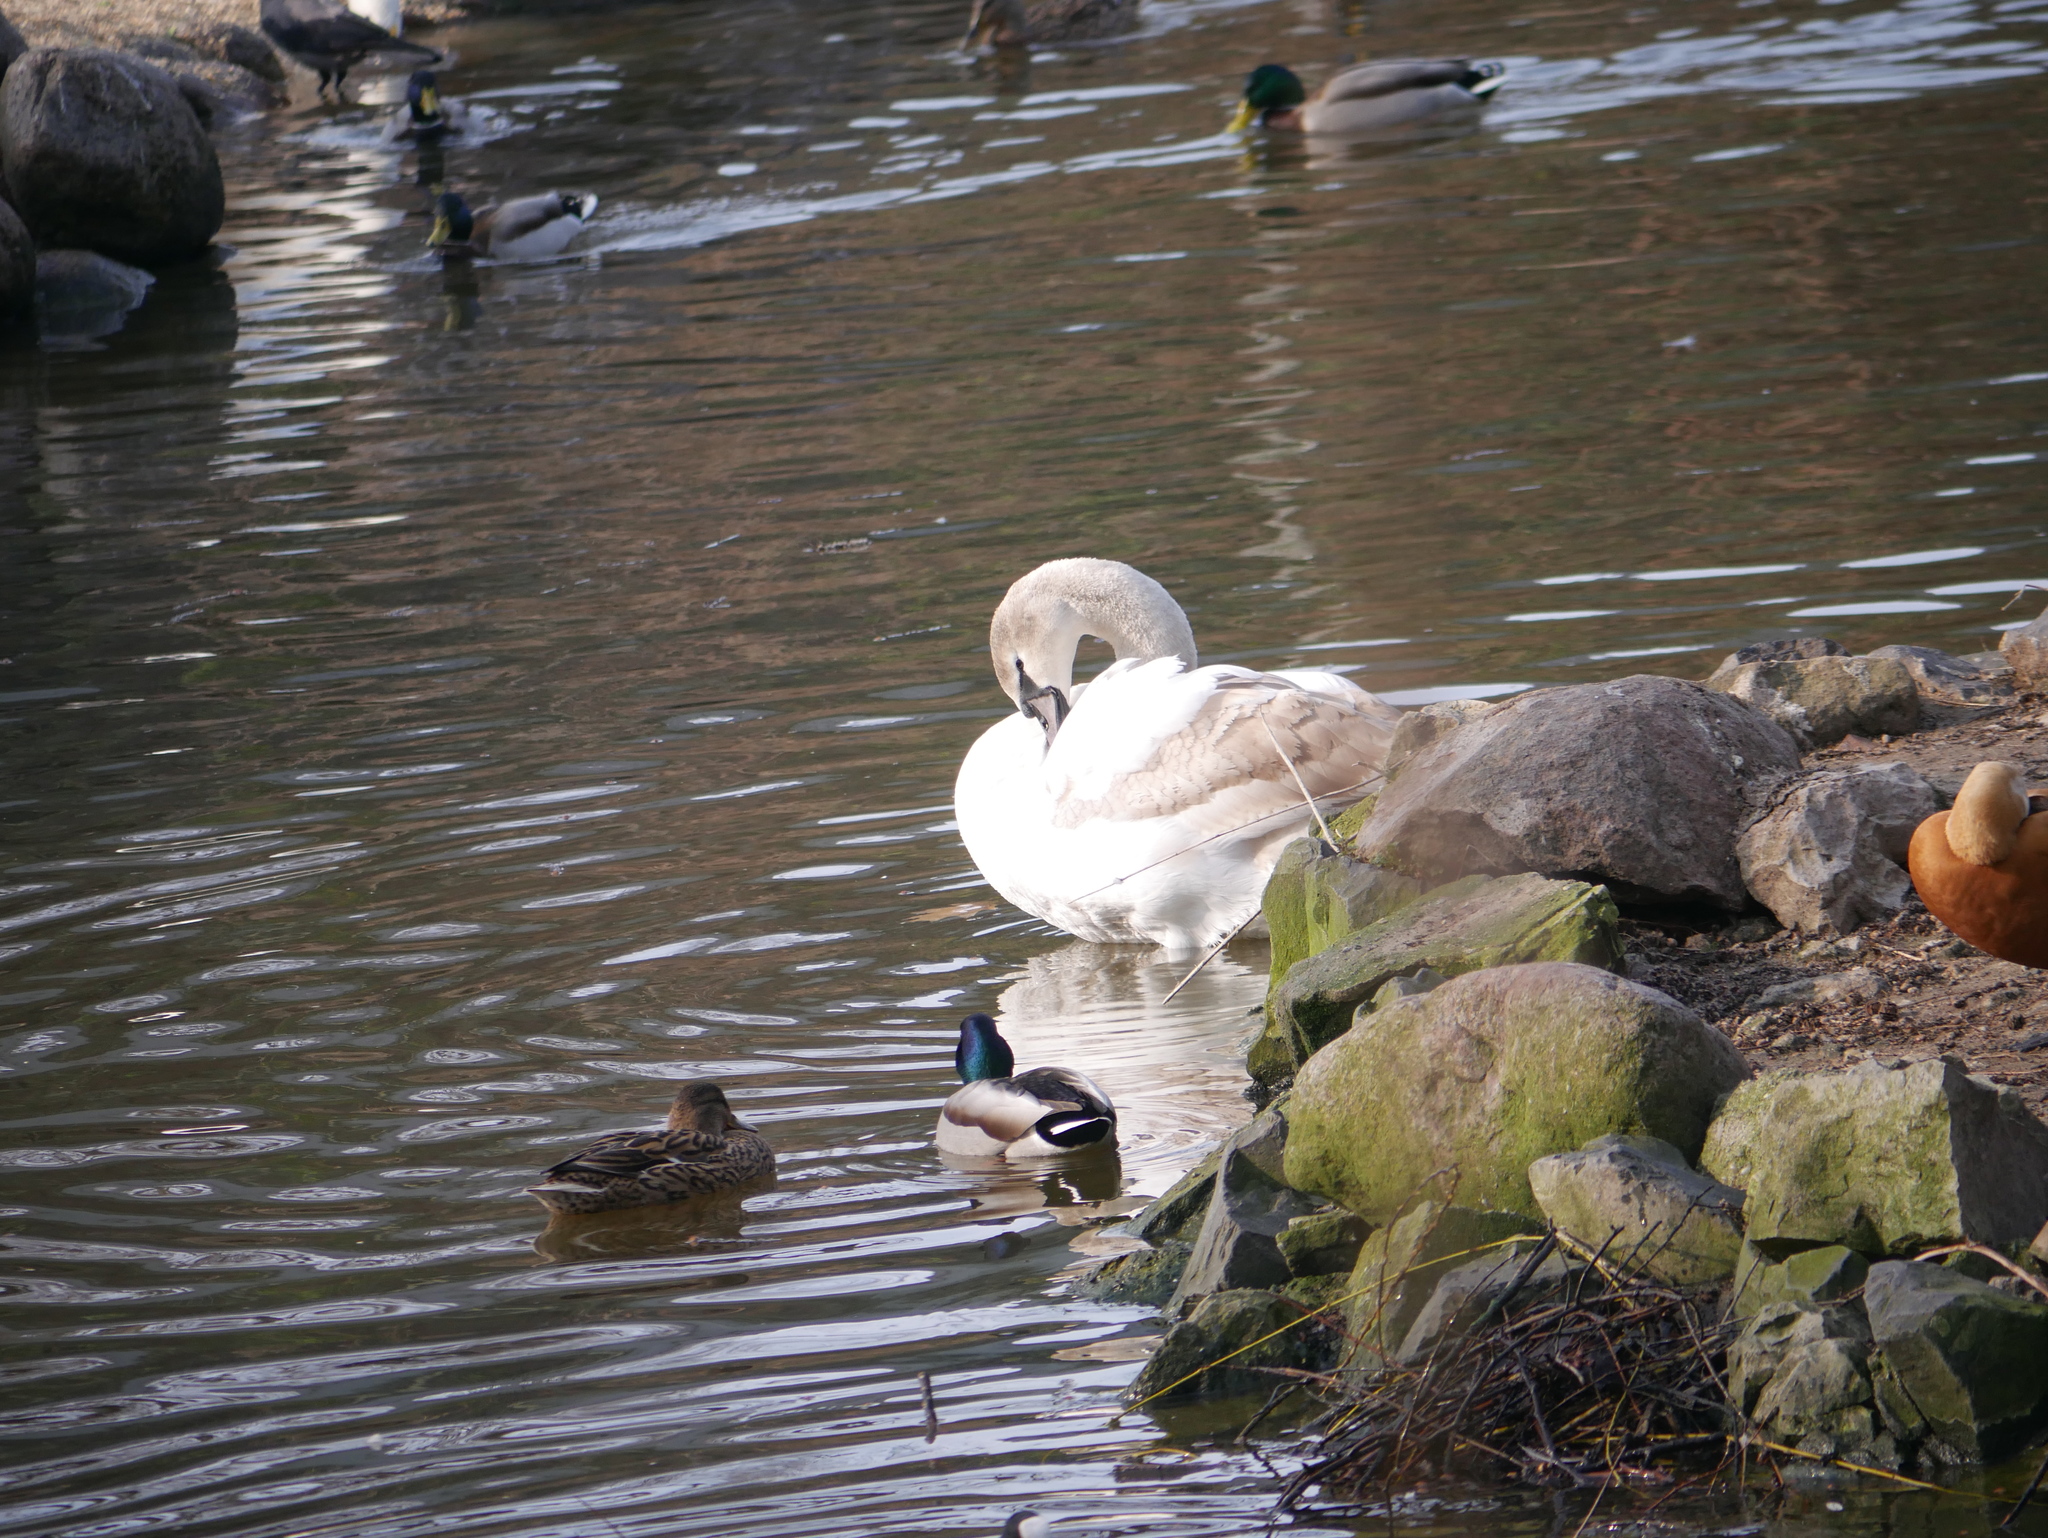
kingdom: Animalia
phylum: Chordata
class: Aves
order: Anseriformes
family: Anatidae
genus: Cygnus
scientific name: Cygnus olor
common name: Mute swan
